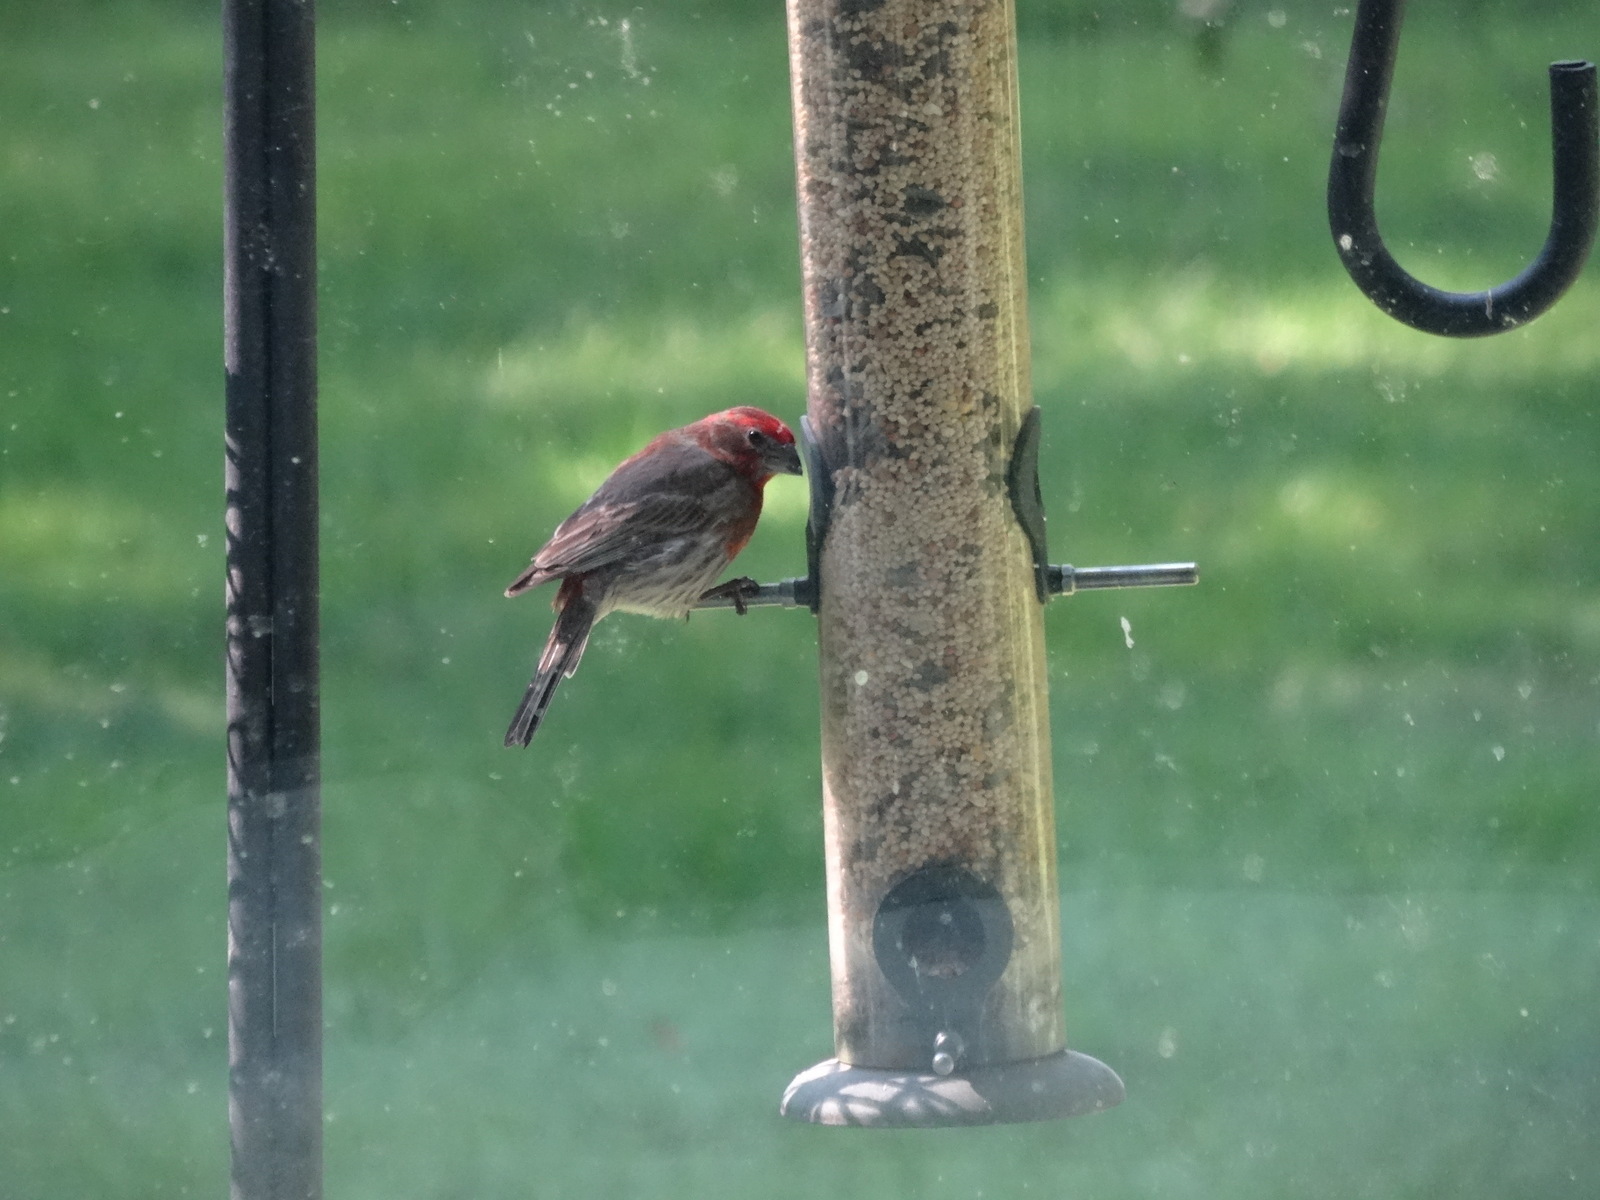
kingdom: Animalia
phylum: Chordata
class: Aves
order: Passeriformes
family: Fringillidae
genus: Haemorhous
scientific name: Haemorhous mexicanus
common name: House finch
